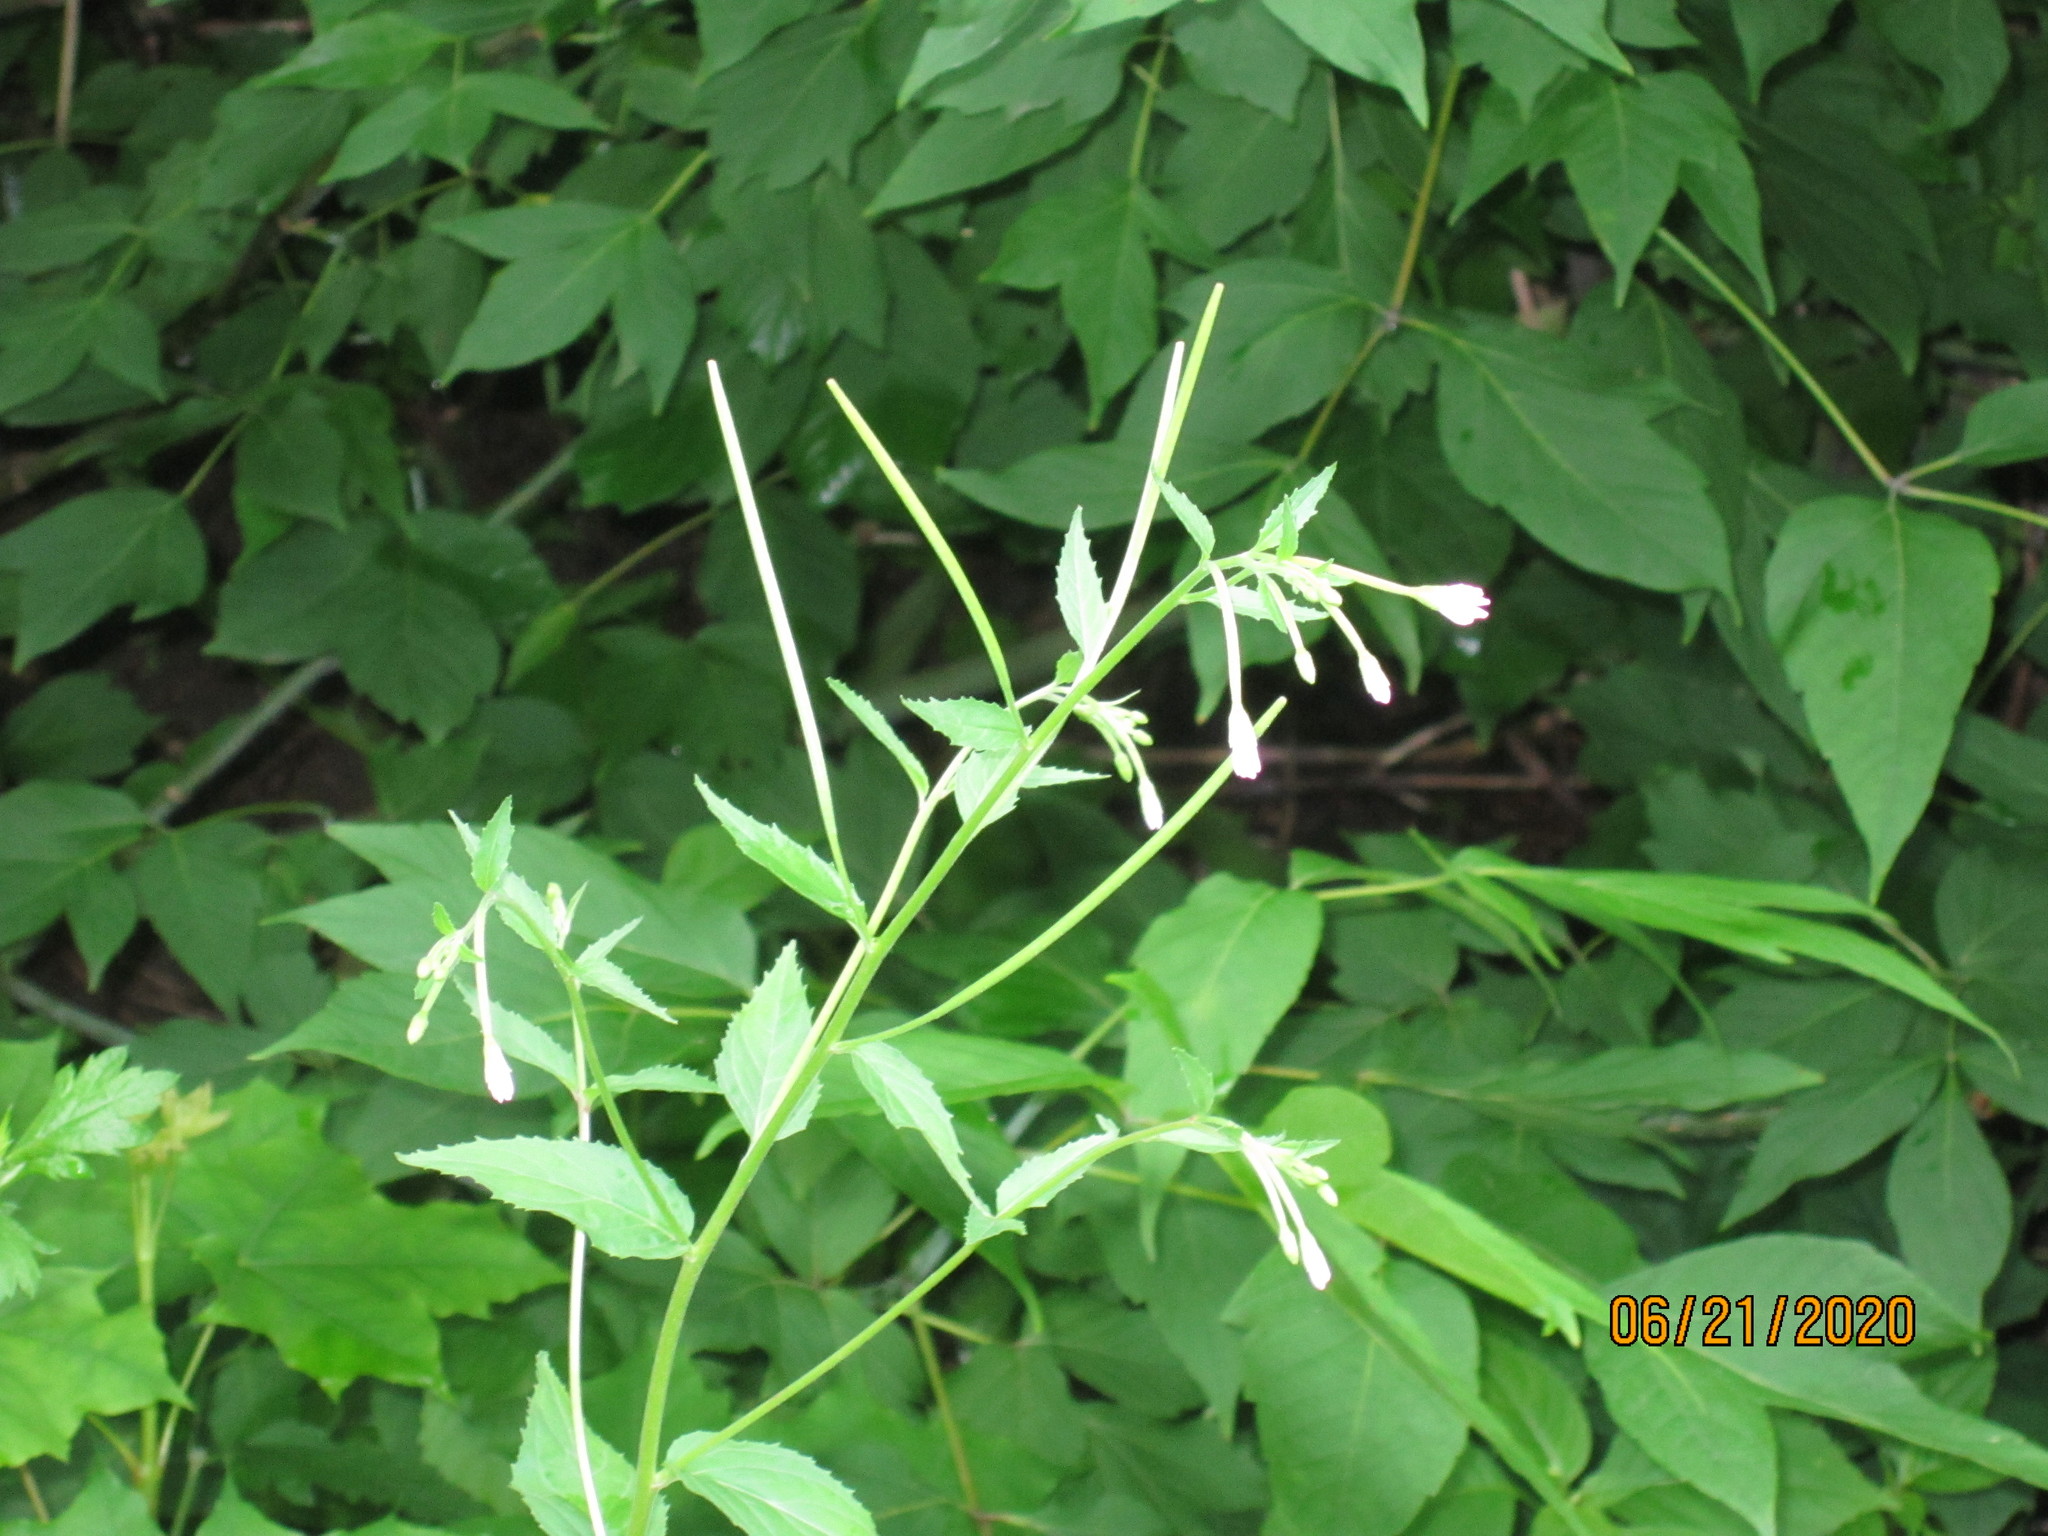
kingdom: Plantae
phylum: Tracheophyta
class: Magnoliopsida
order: Myrtales
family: Onagraceae
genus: Epilobium
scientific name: Epilobium montanum
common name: Broad-leaved willowherb
